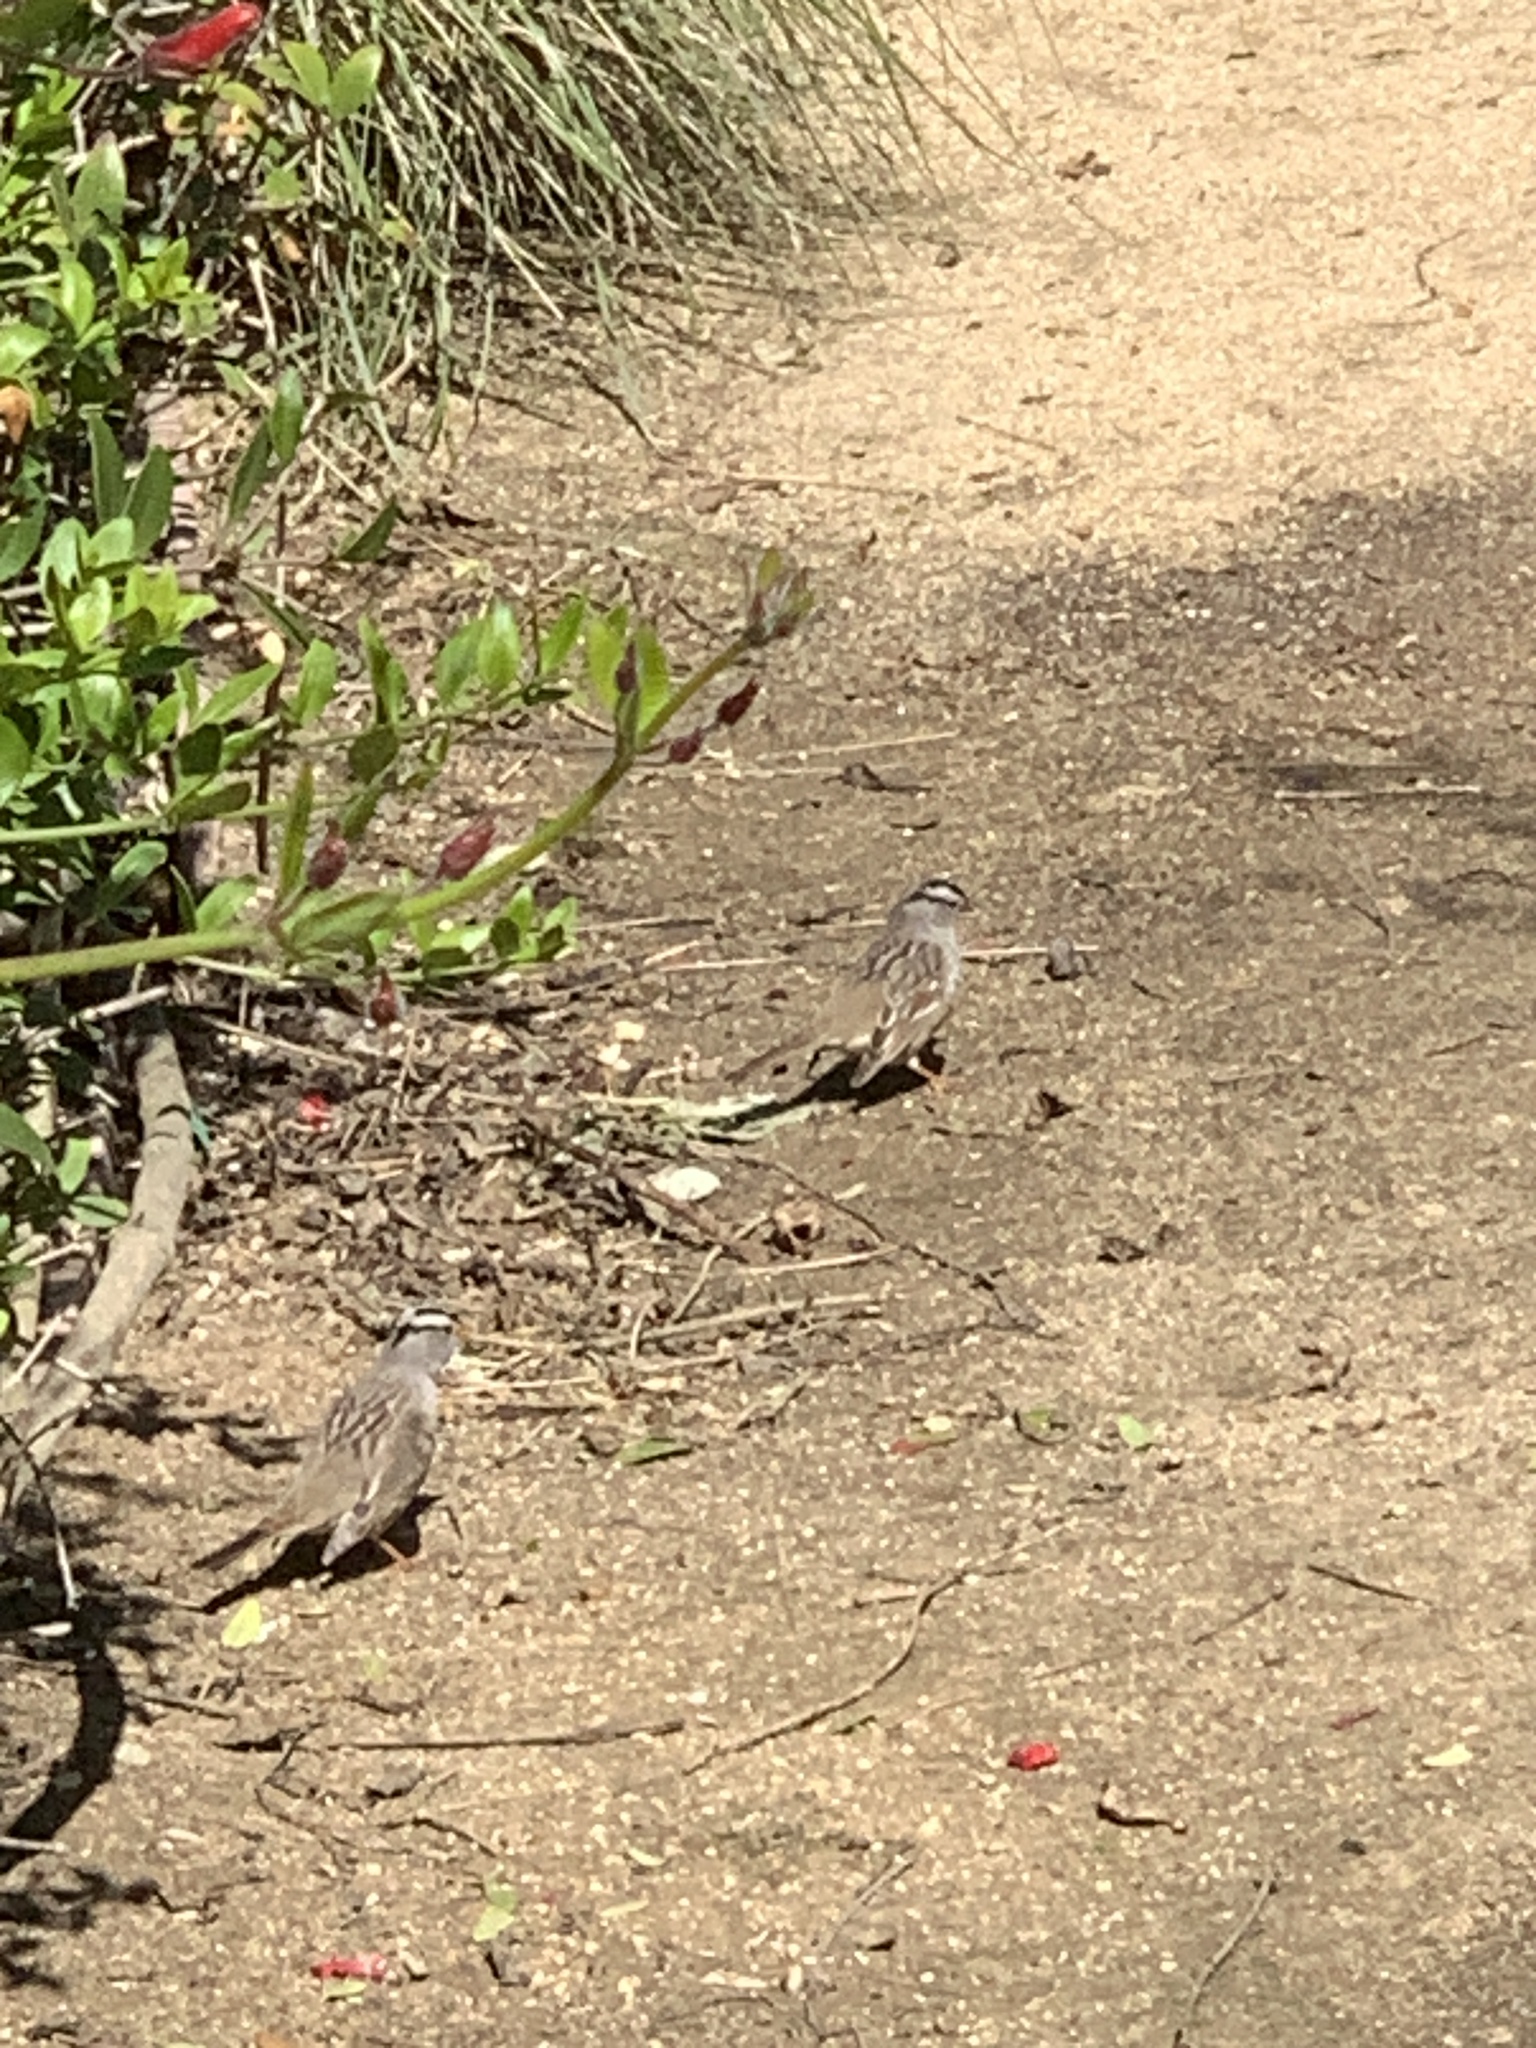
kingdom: Animalia
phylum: Chordata
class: Aves
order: Passeriformes
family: Passerellidae
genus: Zonotrichia
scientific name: Zonotrichia leucophrys
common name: White-crowned sparrow
